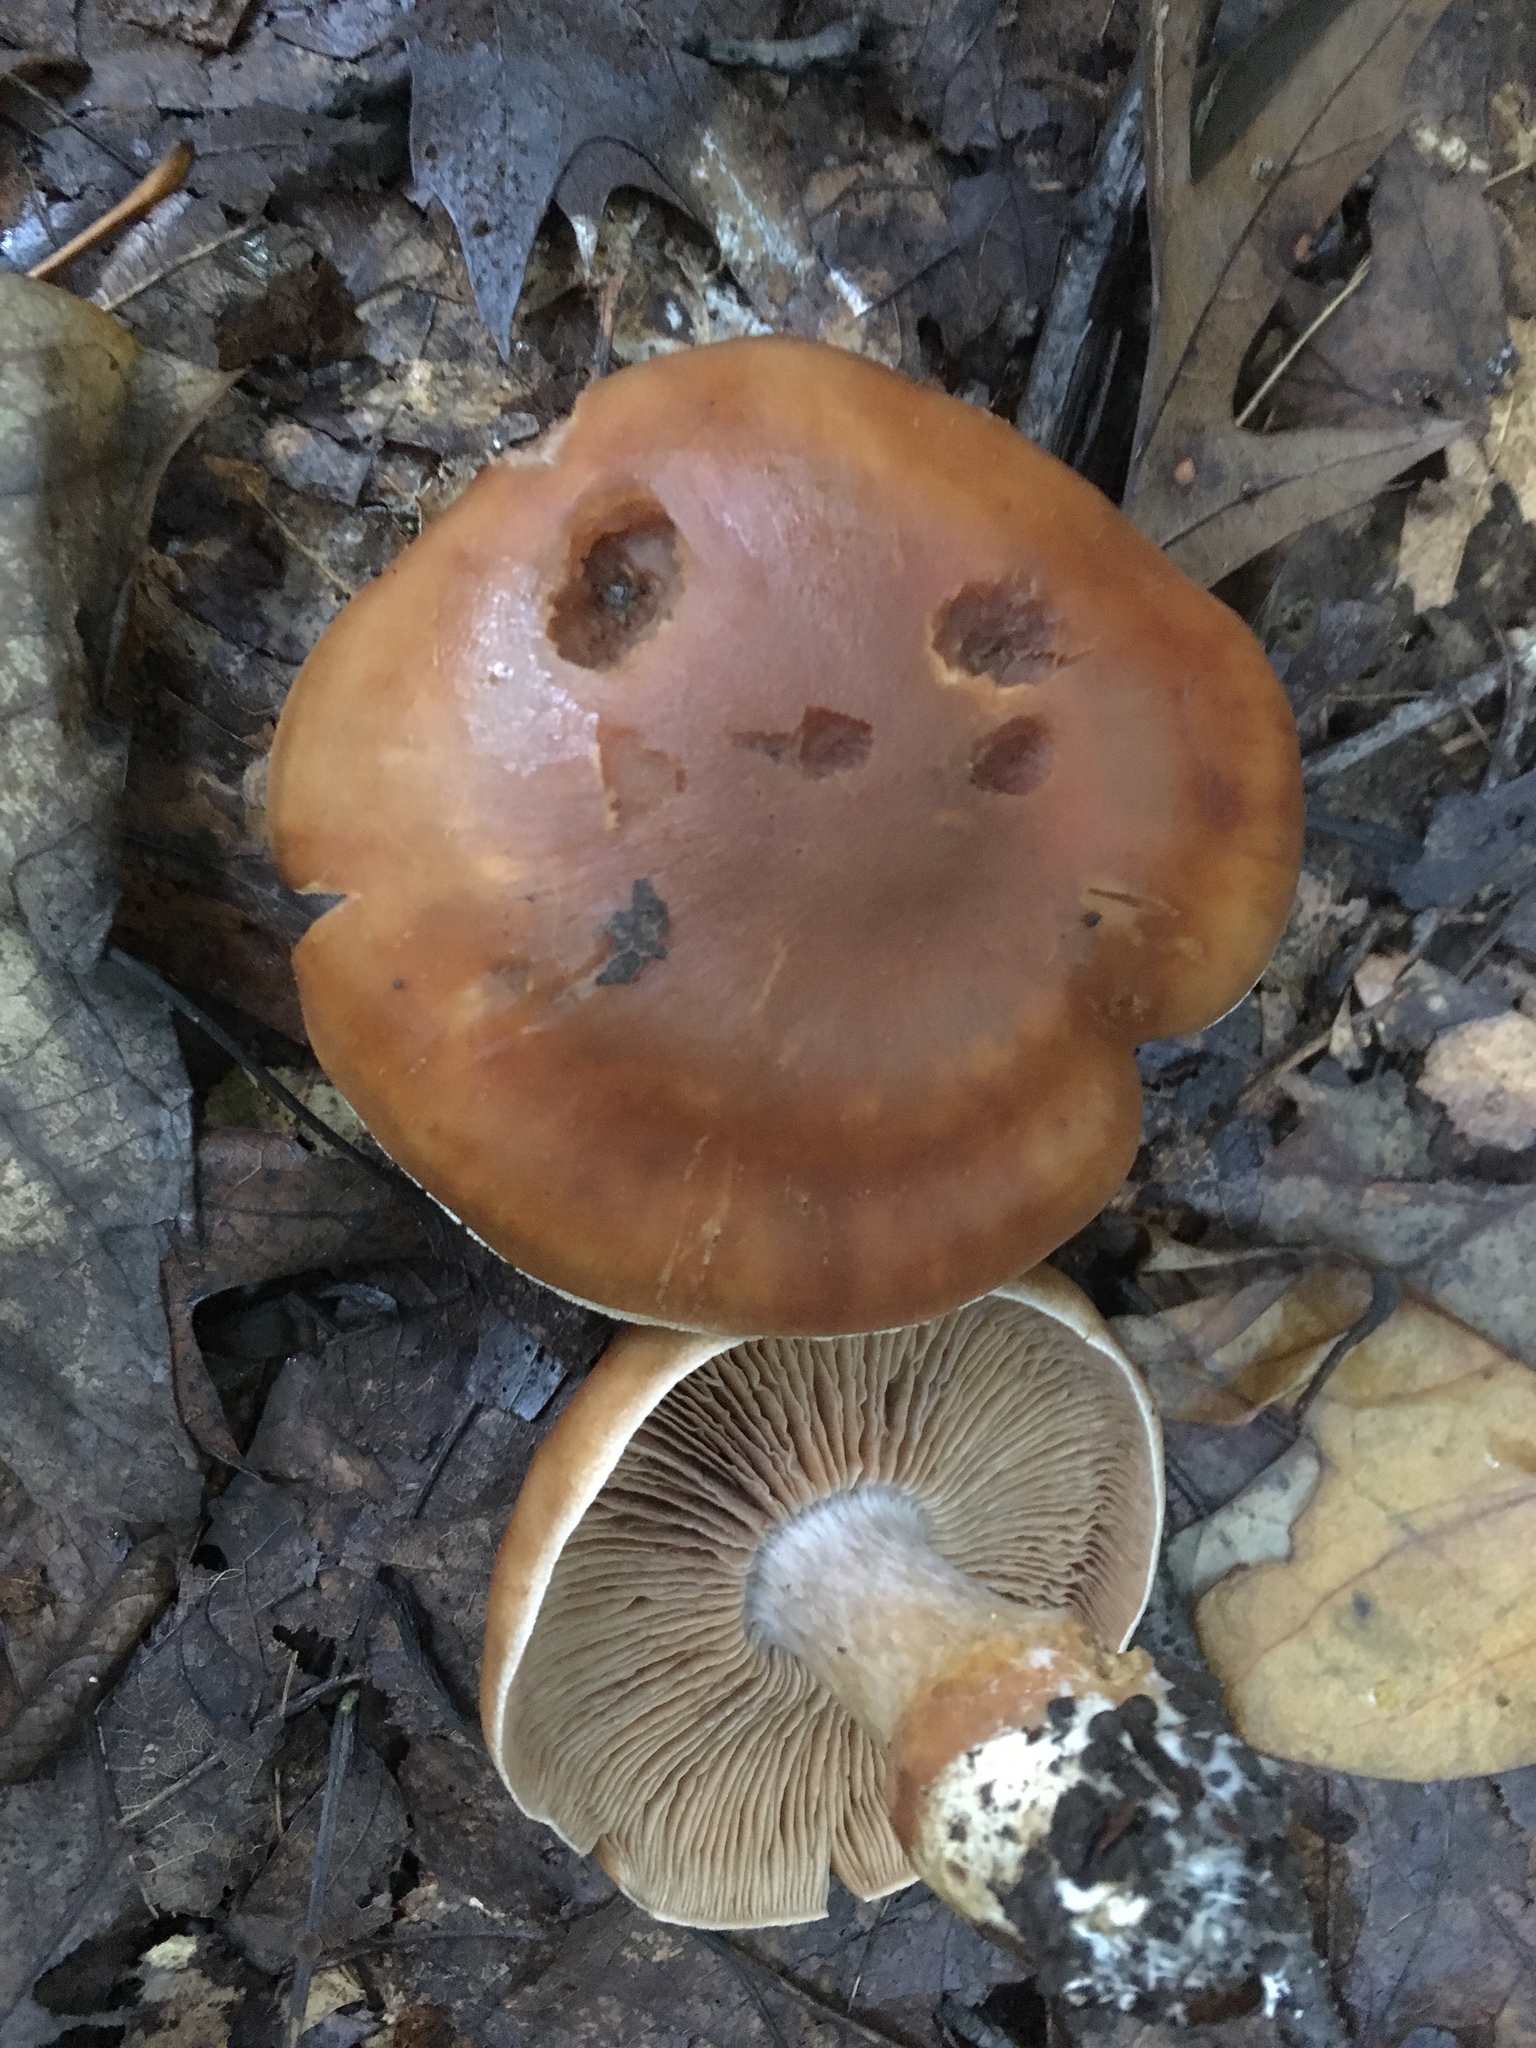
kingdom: Fungi
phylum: Basidiomycota
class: Agaricomycetes
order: Agaricales
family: Cortinariaceae
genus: Cortinarius
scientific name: Cortinarius privignoides
